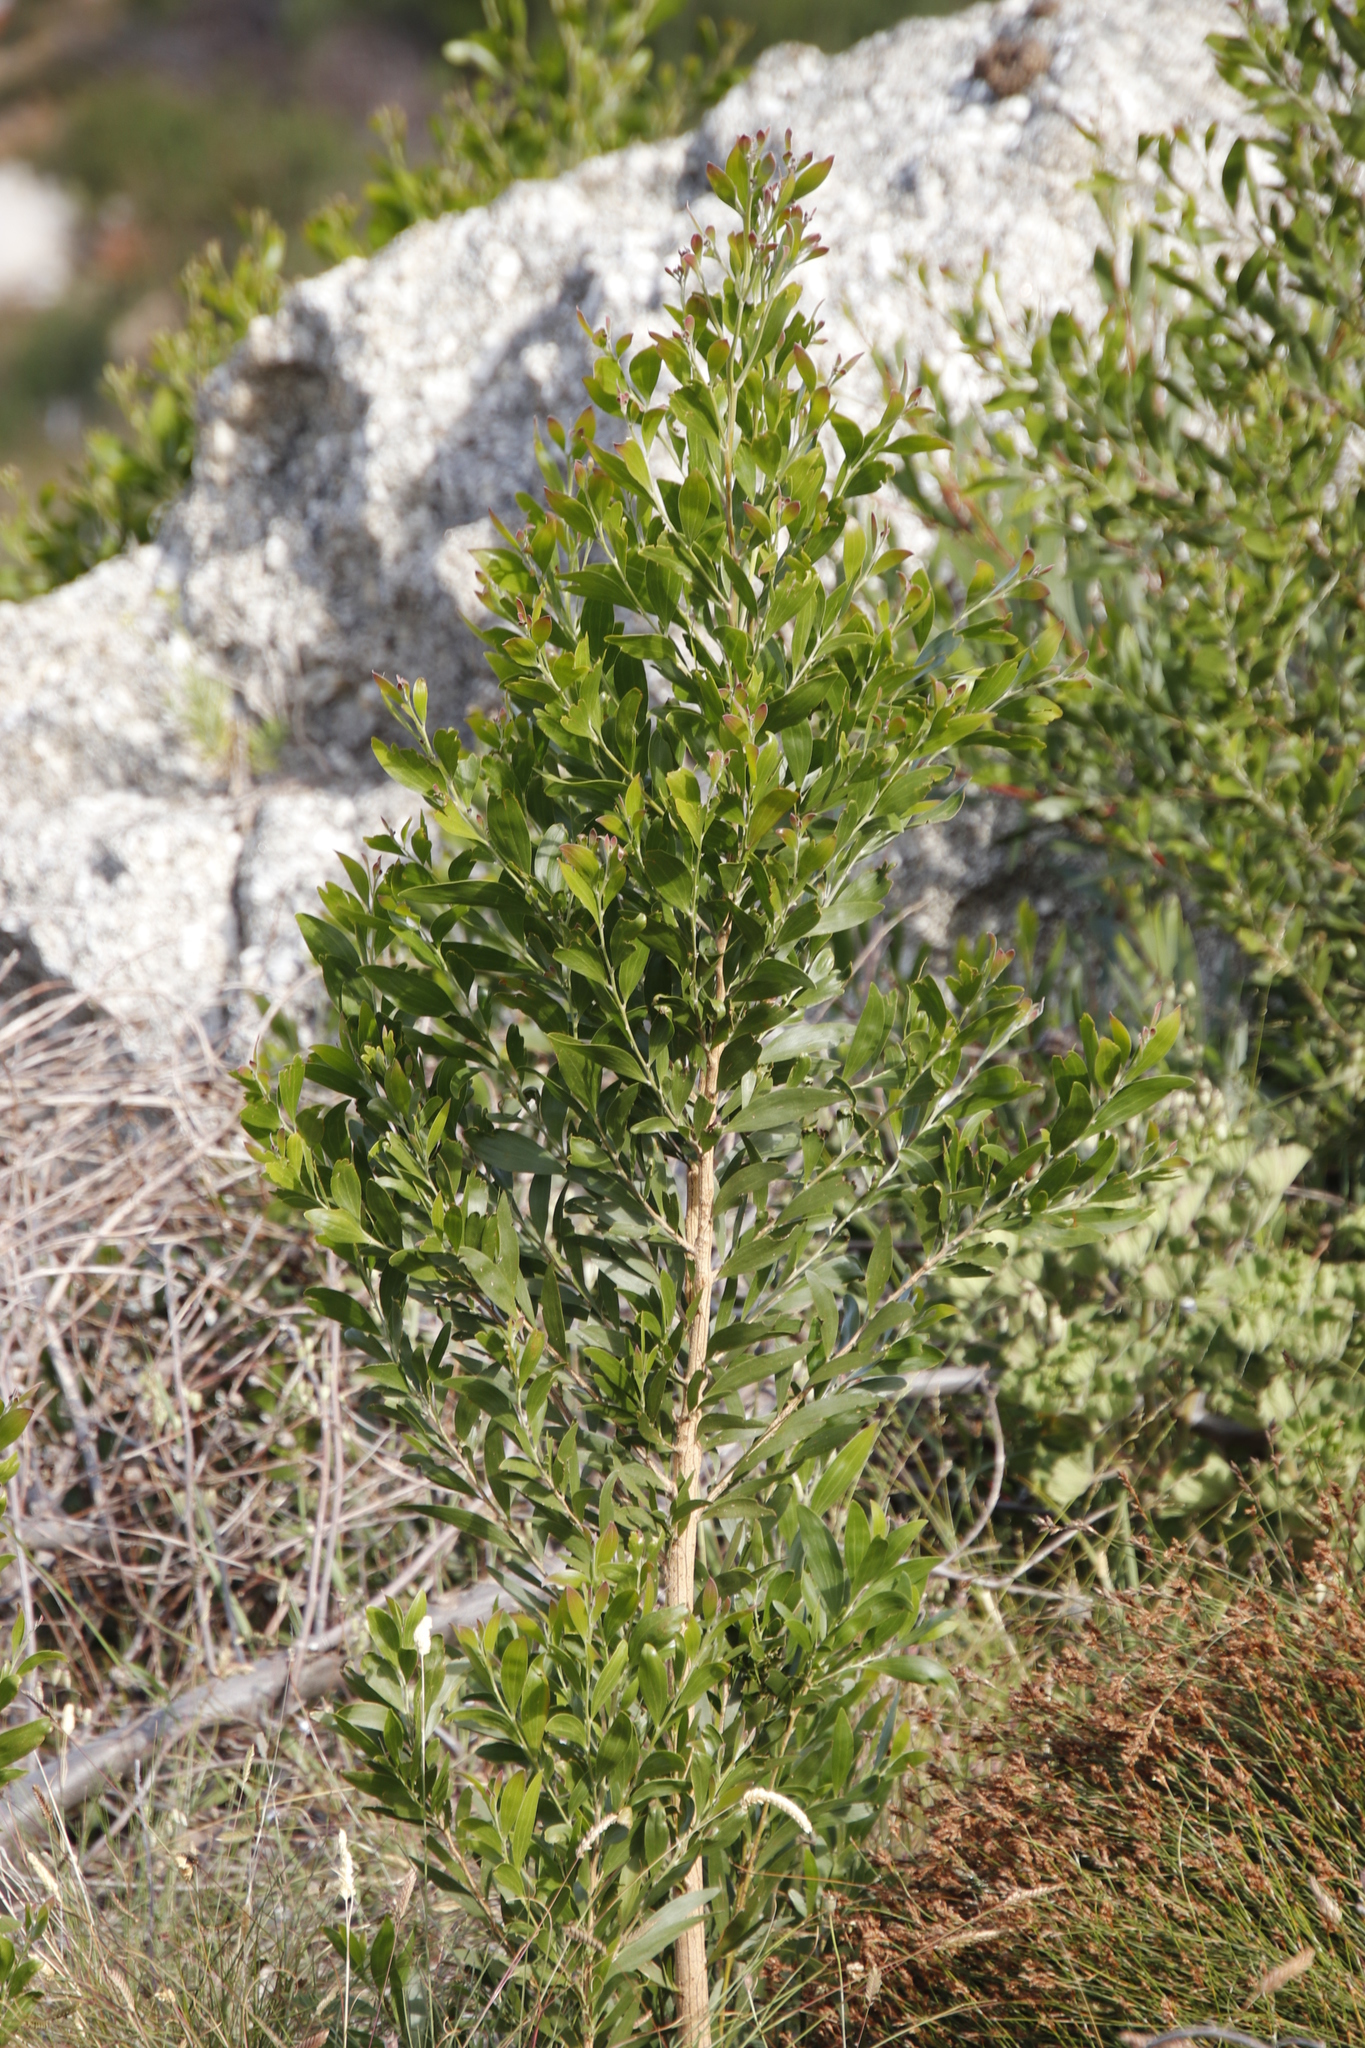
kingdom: Plantae
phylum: Tracheophyta
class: Magnoliopsida
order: Fabales
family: Fabaceae
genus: Acacia
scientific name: Acacia melanoxylon
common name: Blackwood
